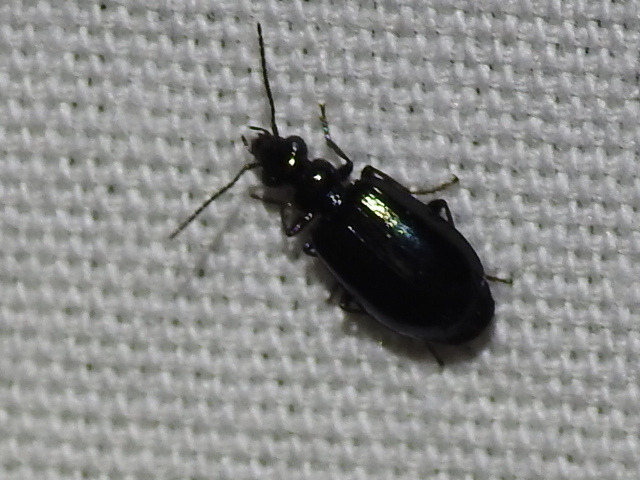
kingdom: Animalia
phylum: Arthropoda
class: Insecta
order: Coleoptera
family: Carabidae
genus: Lebia
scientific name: Lebia viridis
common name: Flower lebia beetle
